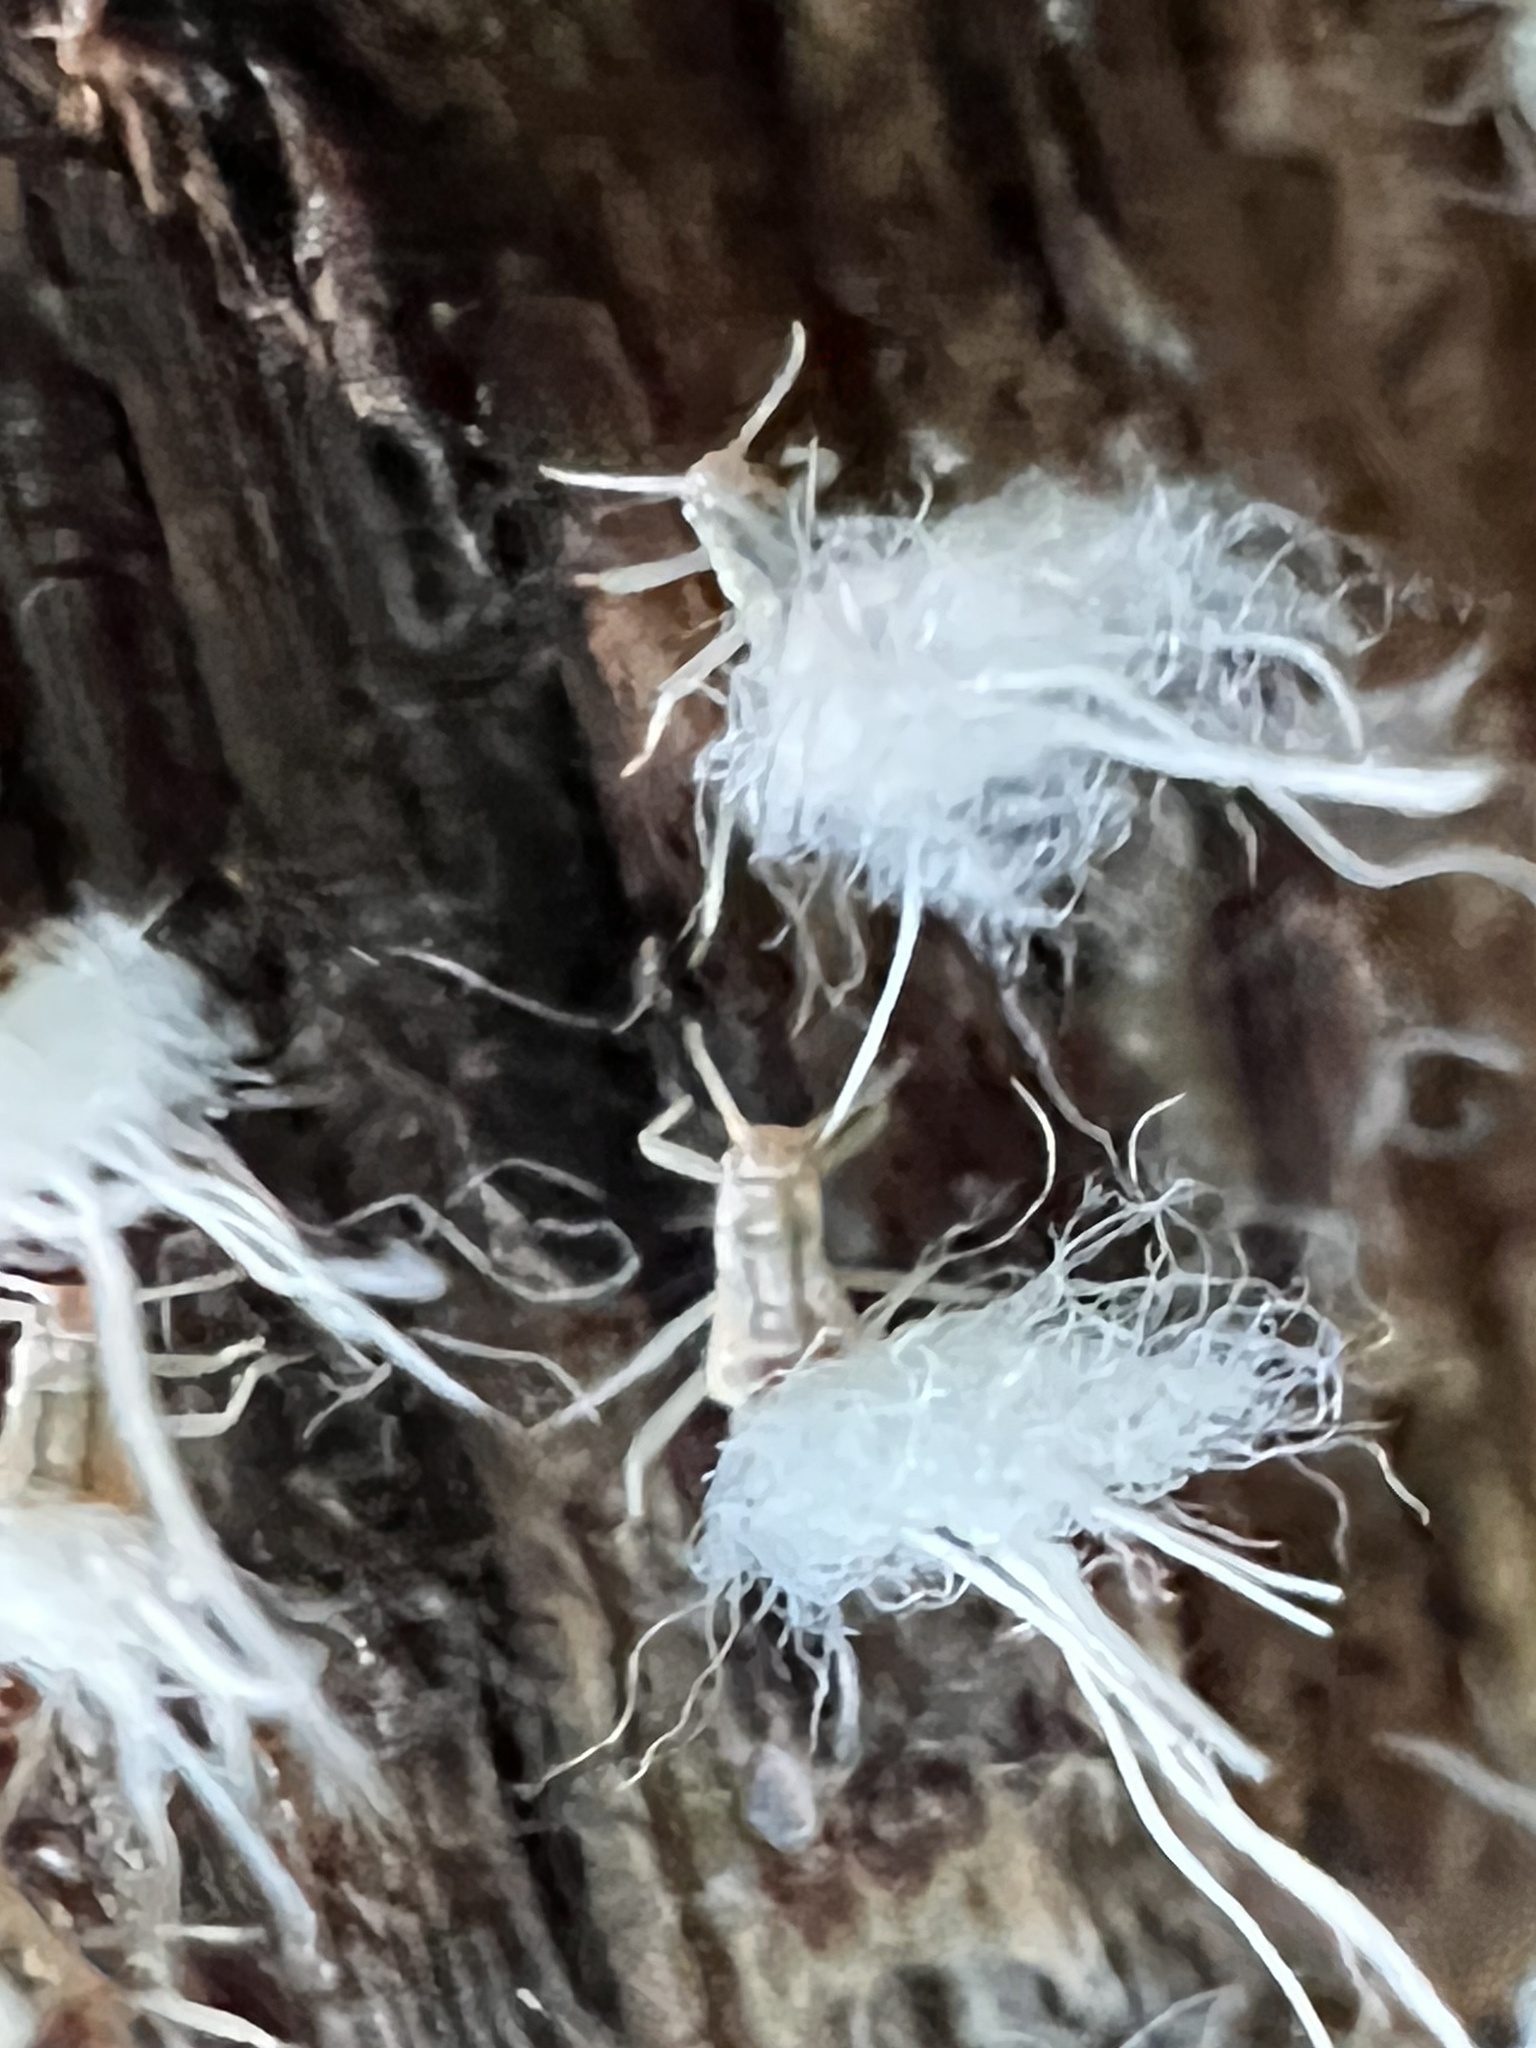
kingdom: Animalia
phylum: Arthropoda
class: Insecta
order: Hemiptera
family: Aphididae
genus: Grylloprociphilus
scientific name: Grylloprociphilus imbricator
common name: Beech blight aphid
